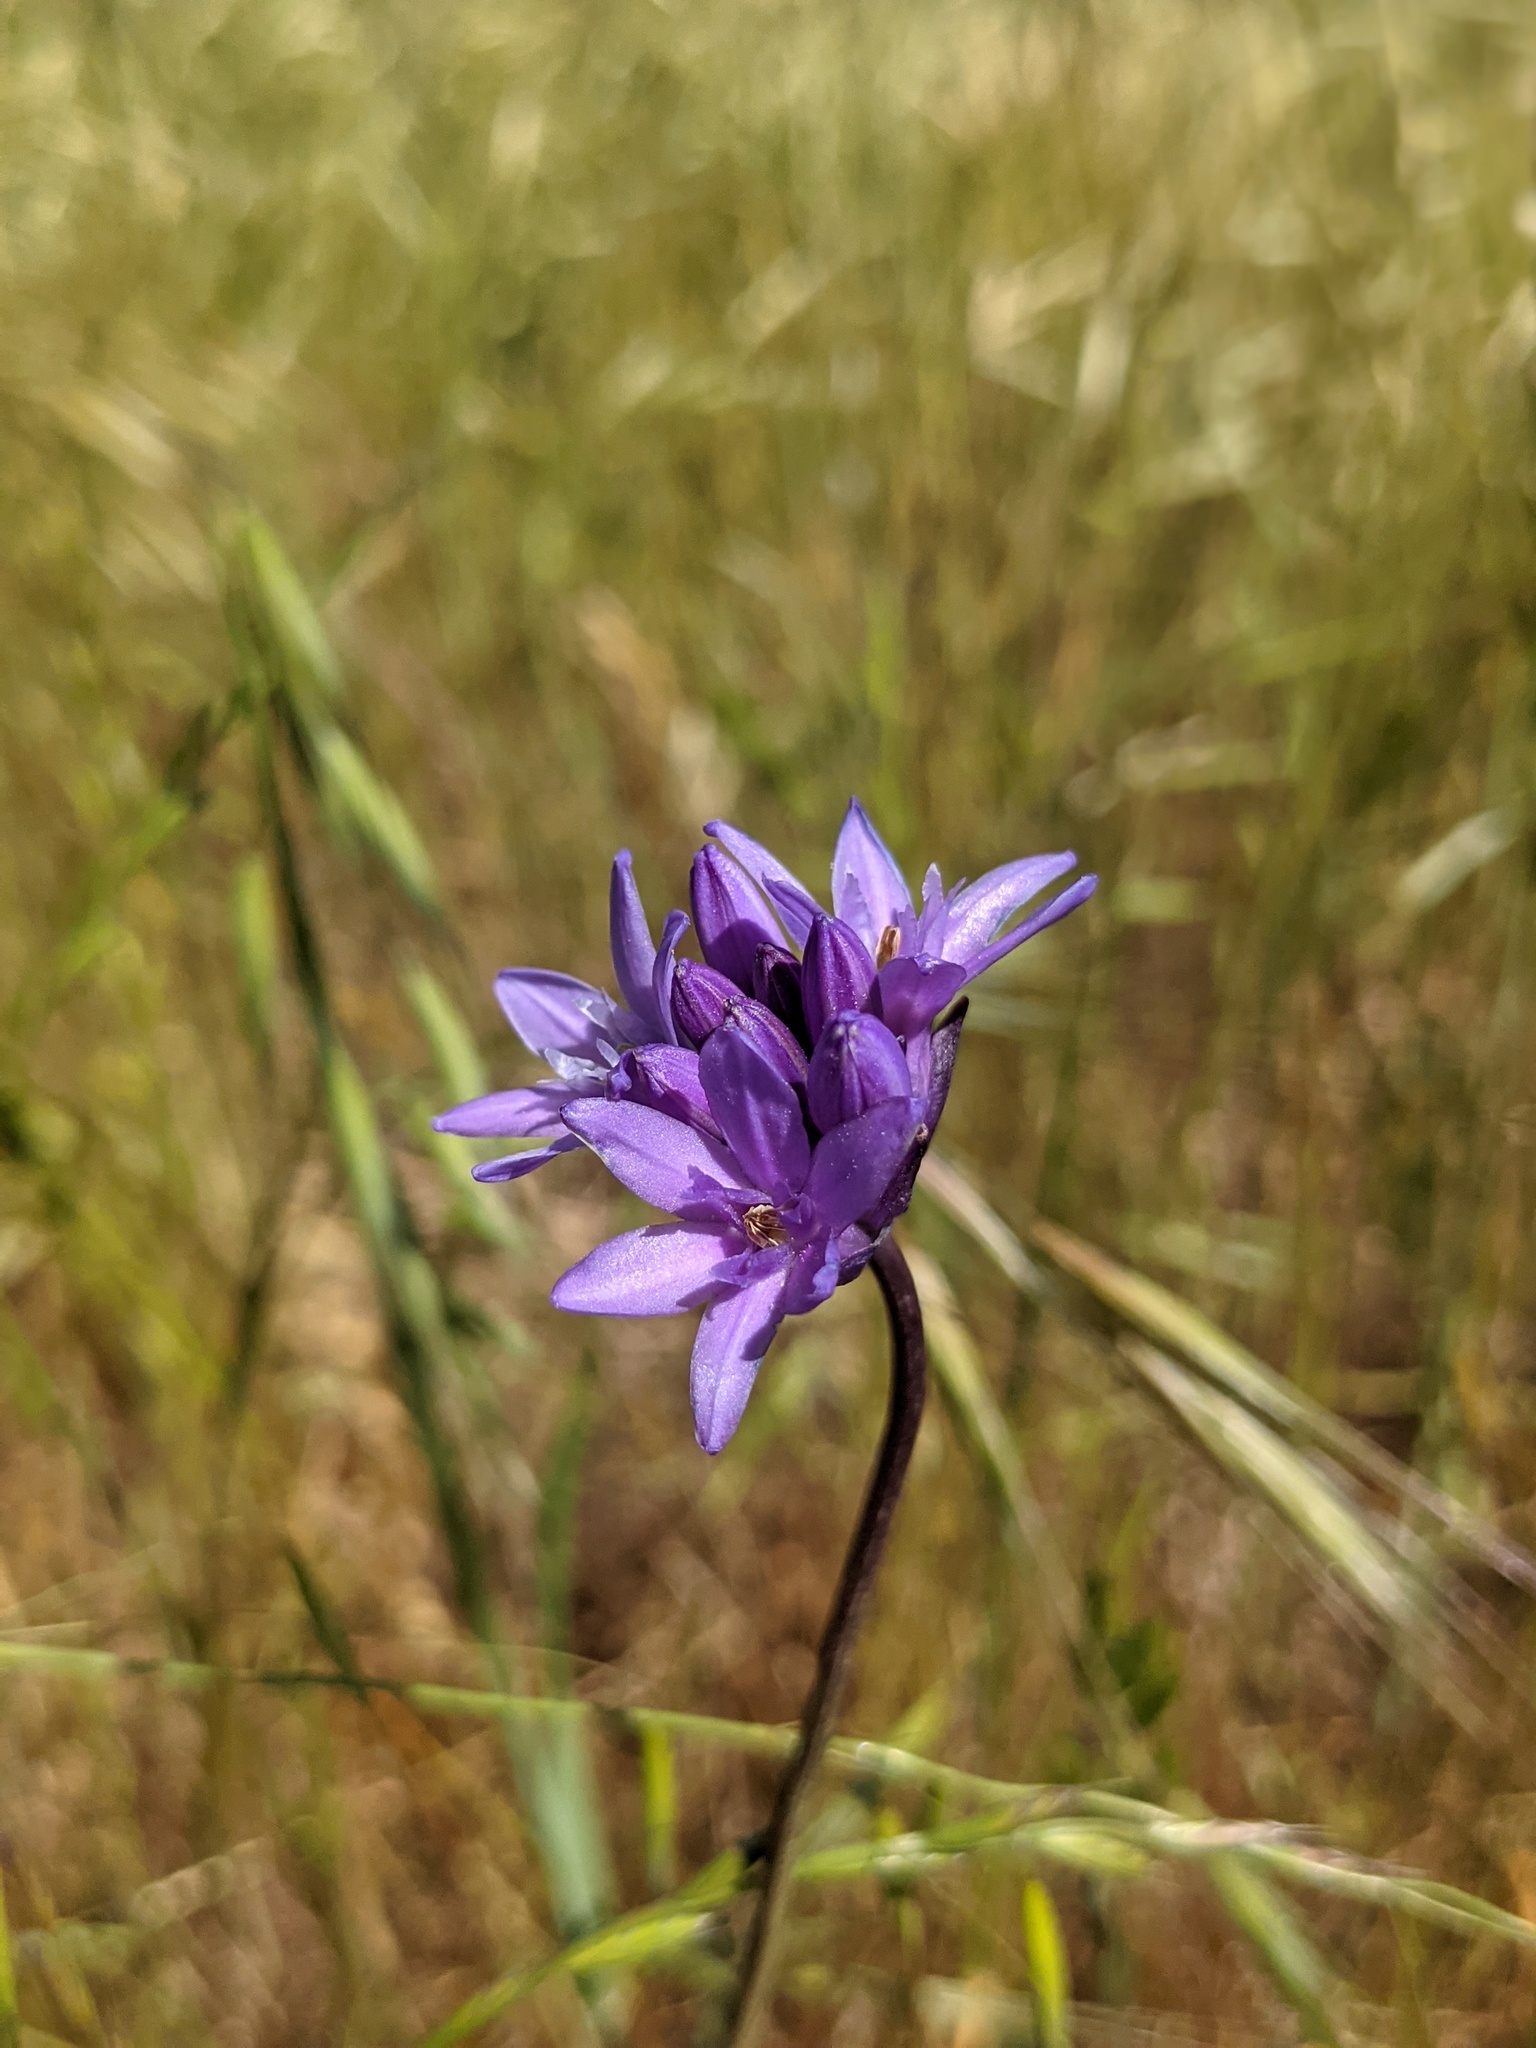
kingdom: Plantae
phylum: Tracheophyta
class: Liliopsida
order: Asparagales
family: Asparagaceae
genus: Dichelostemma
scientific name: Dichelostemma congestum
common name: Fork-tooth ookow
